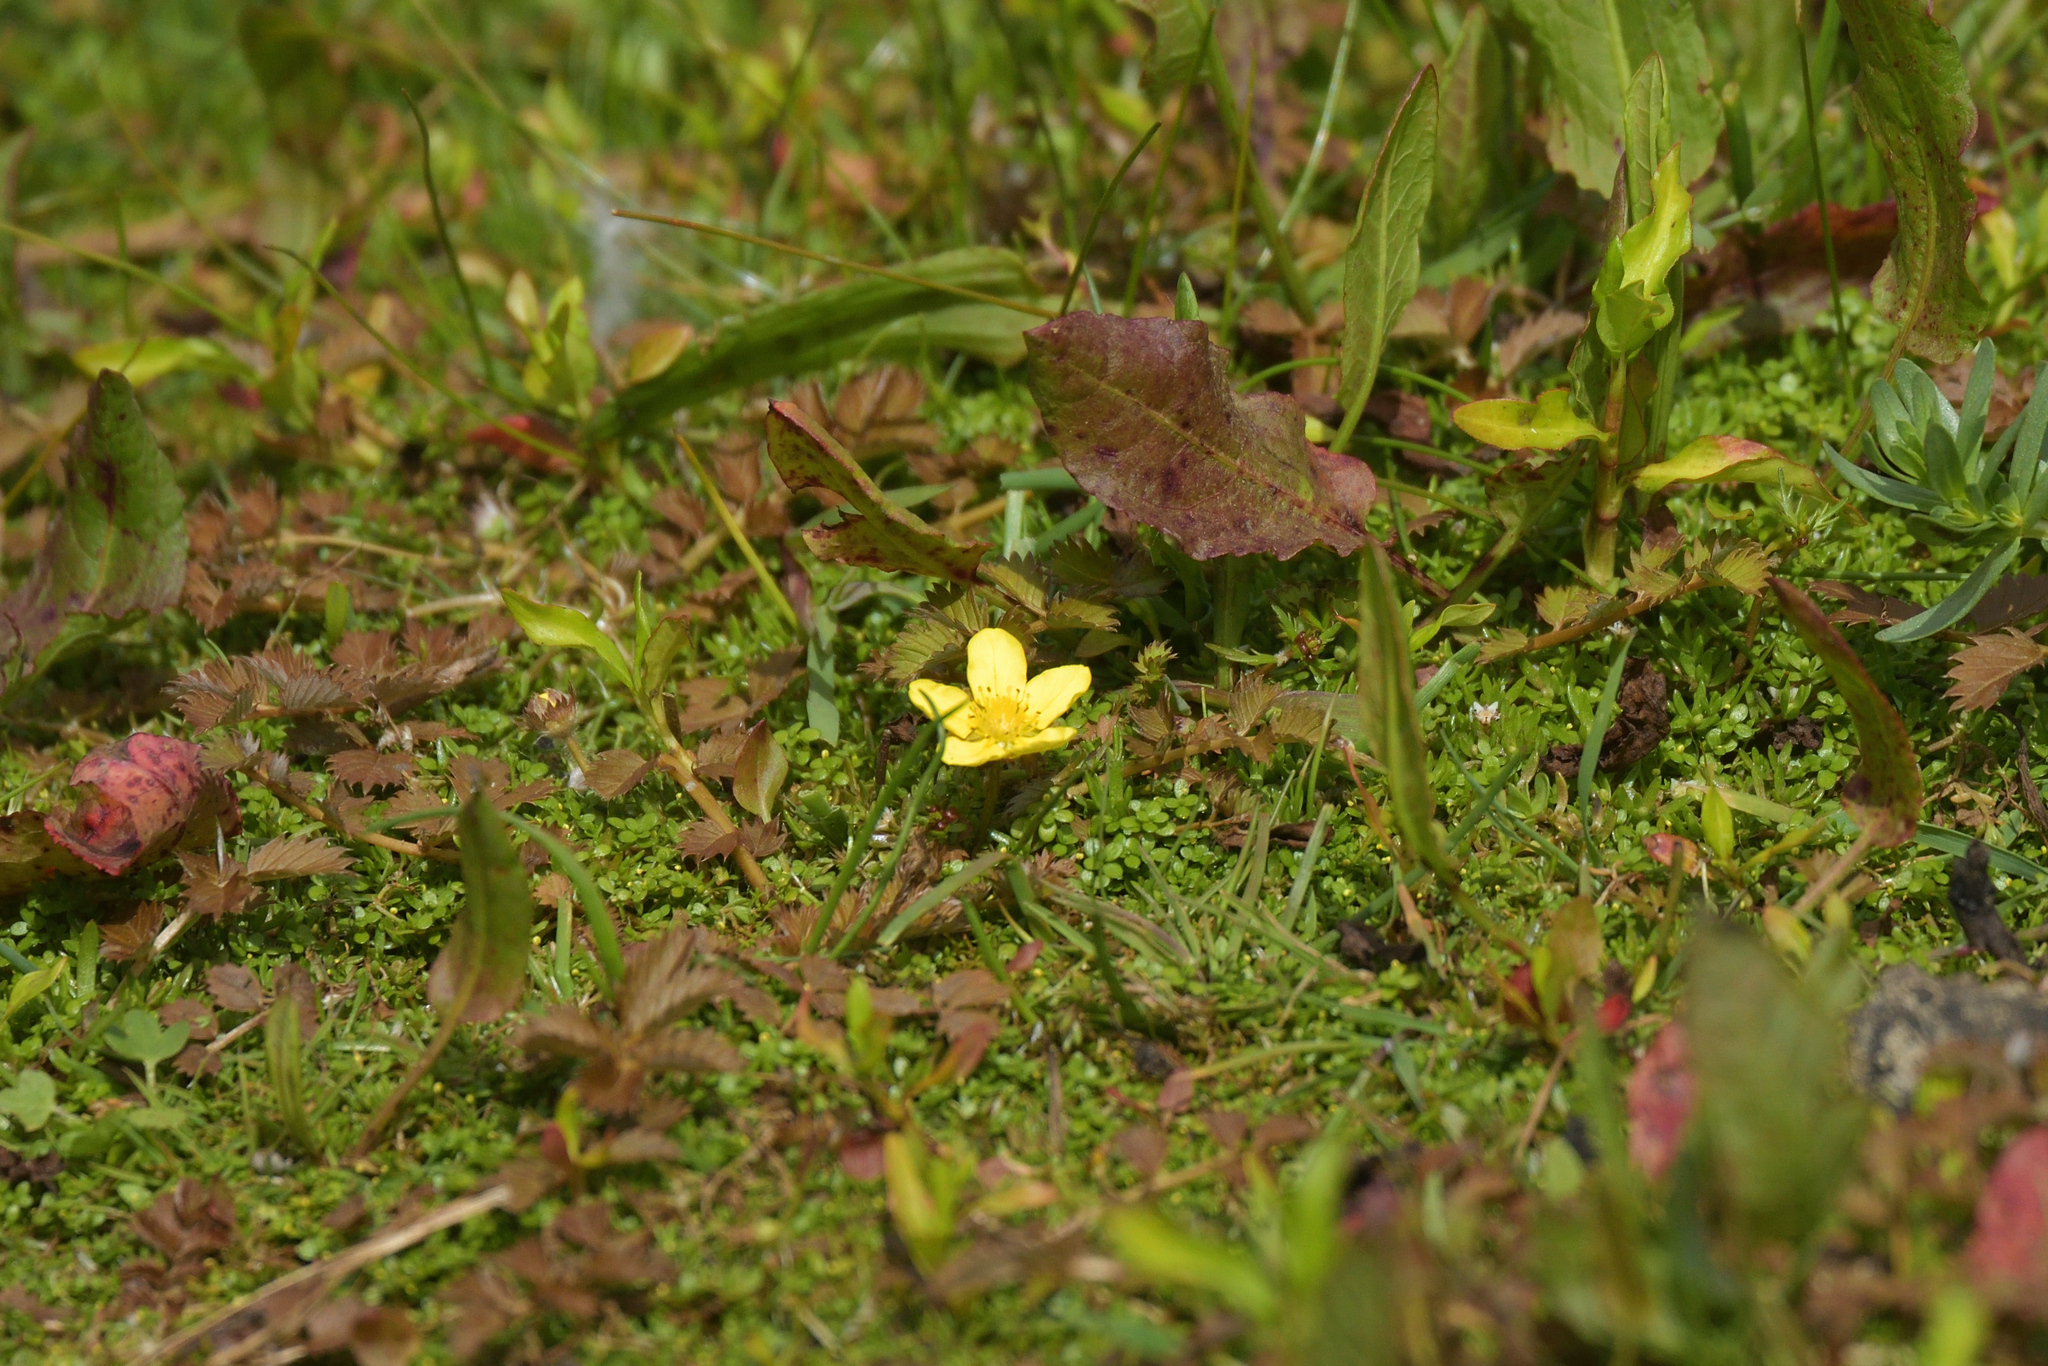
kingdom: Plantae
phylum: Tracheophyta
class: Magnoliopsida
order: Rosales
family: Rosaceae
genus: Argentina
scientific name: Argentina anserinoides
